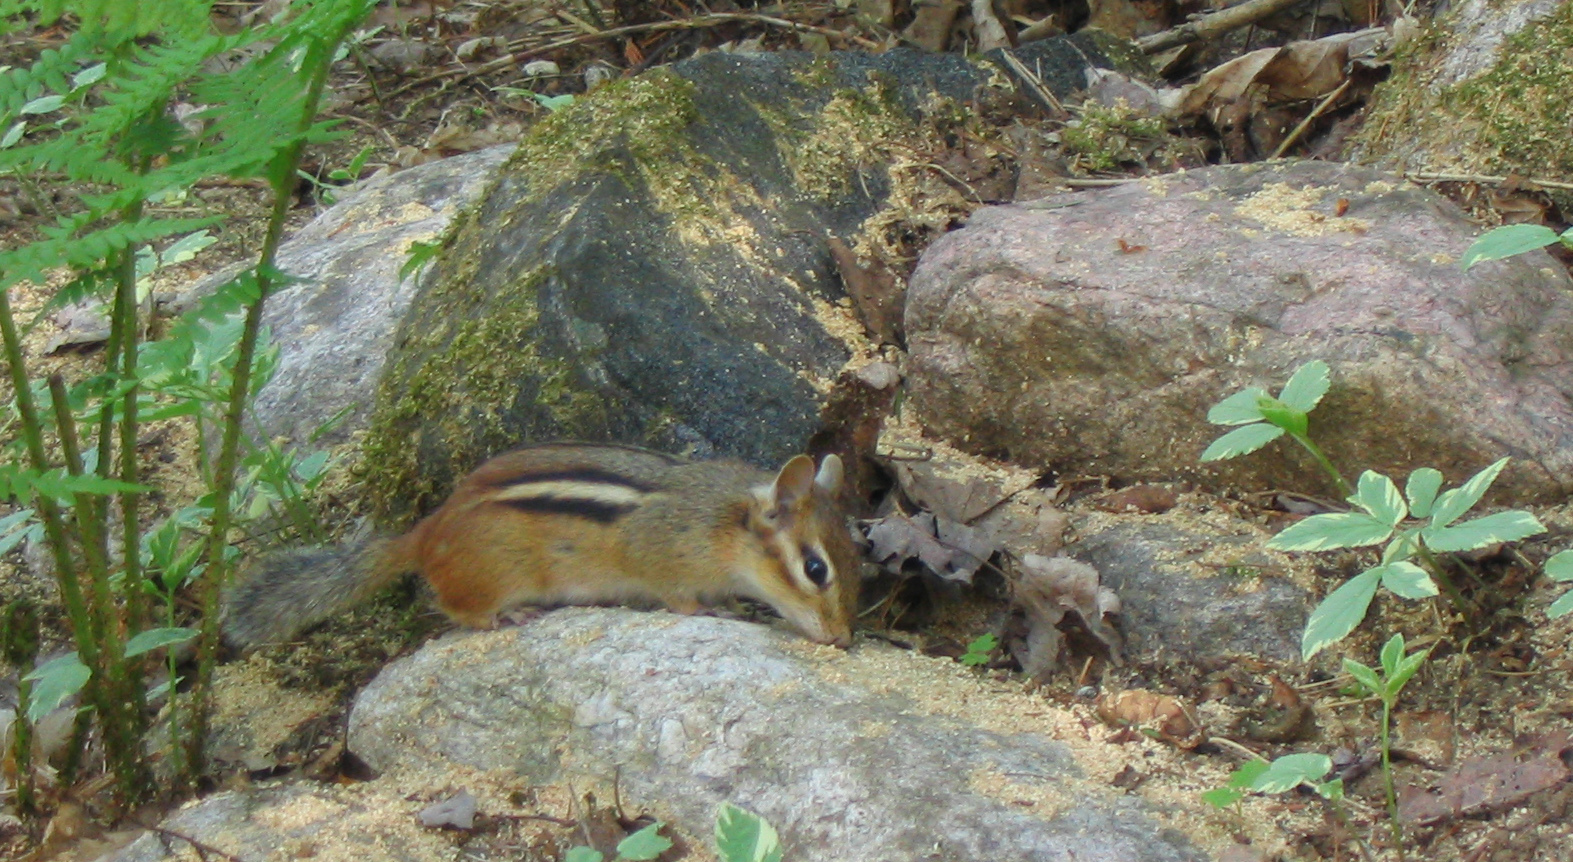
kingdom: Animalia
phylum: Chordata
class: Mammalia
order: Rodentia
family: Sciuridae
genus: Tamias
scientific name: Tamias striatus
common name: Eastern chipmunk
